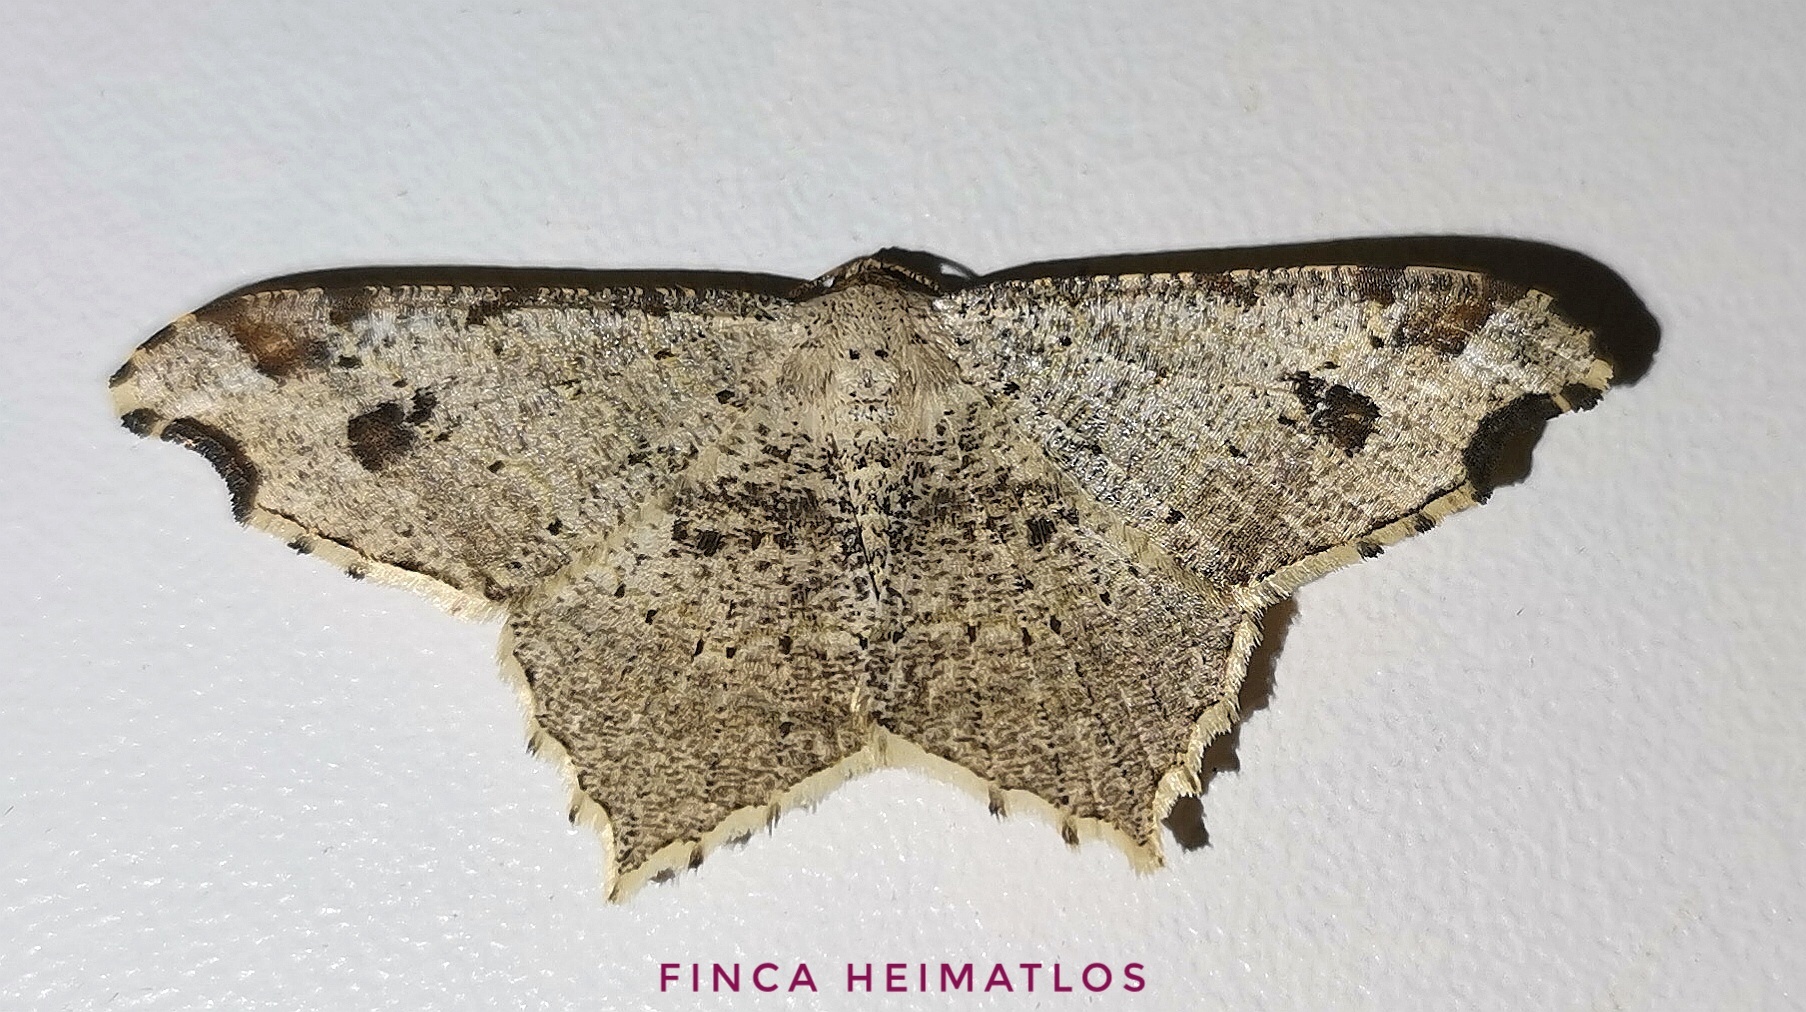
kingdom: Animalia
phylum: Arthropoda
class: Insecta
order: Lepidoptera
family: Geometridae
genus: Macaria
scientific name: Macaria bejucoaria
